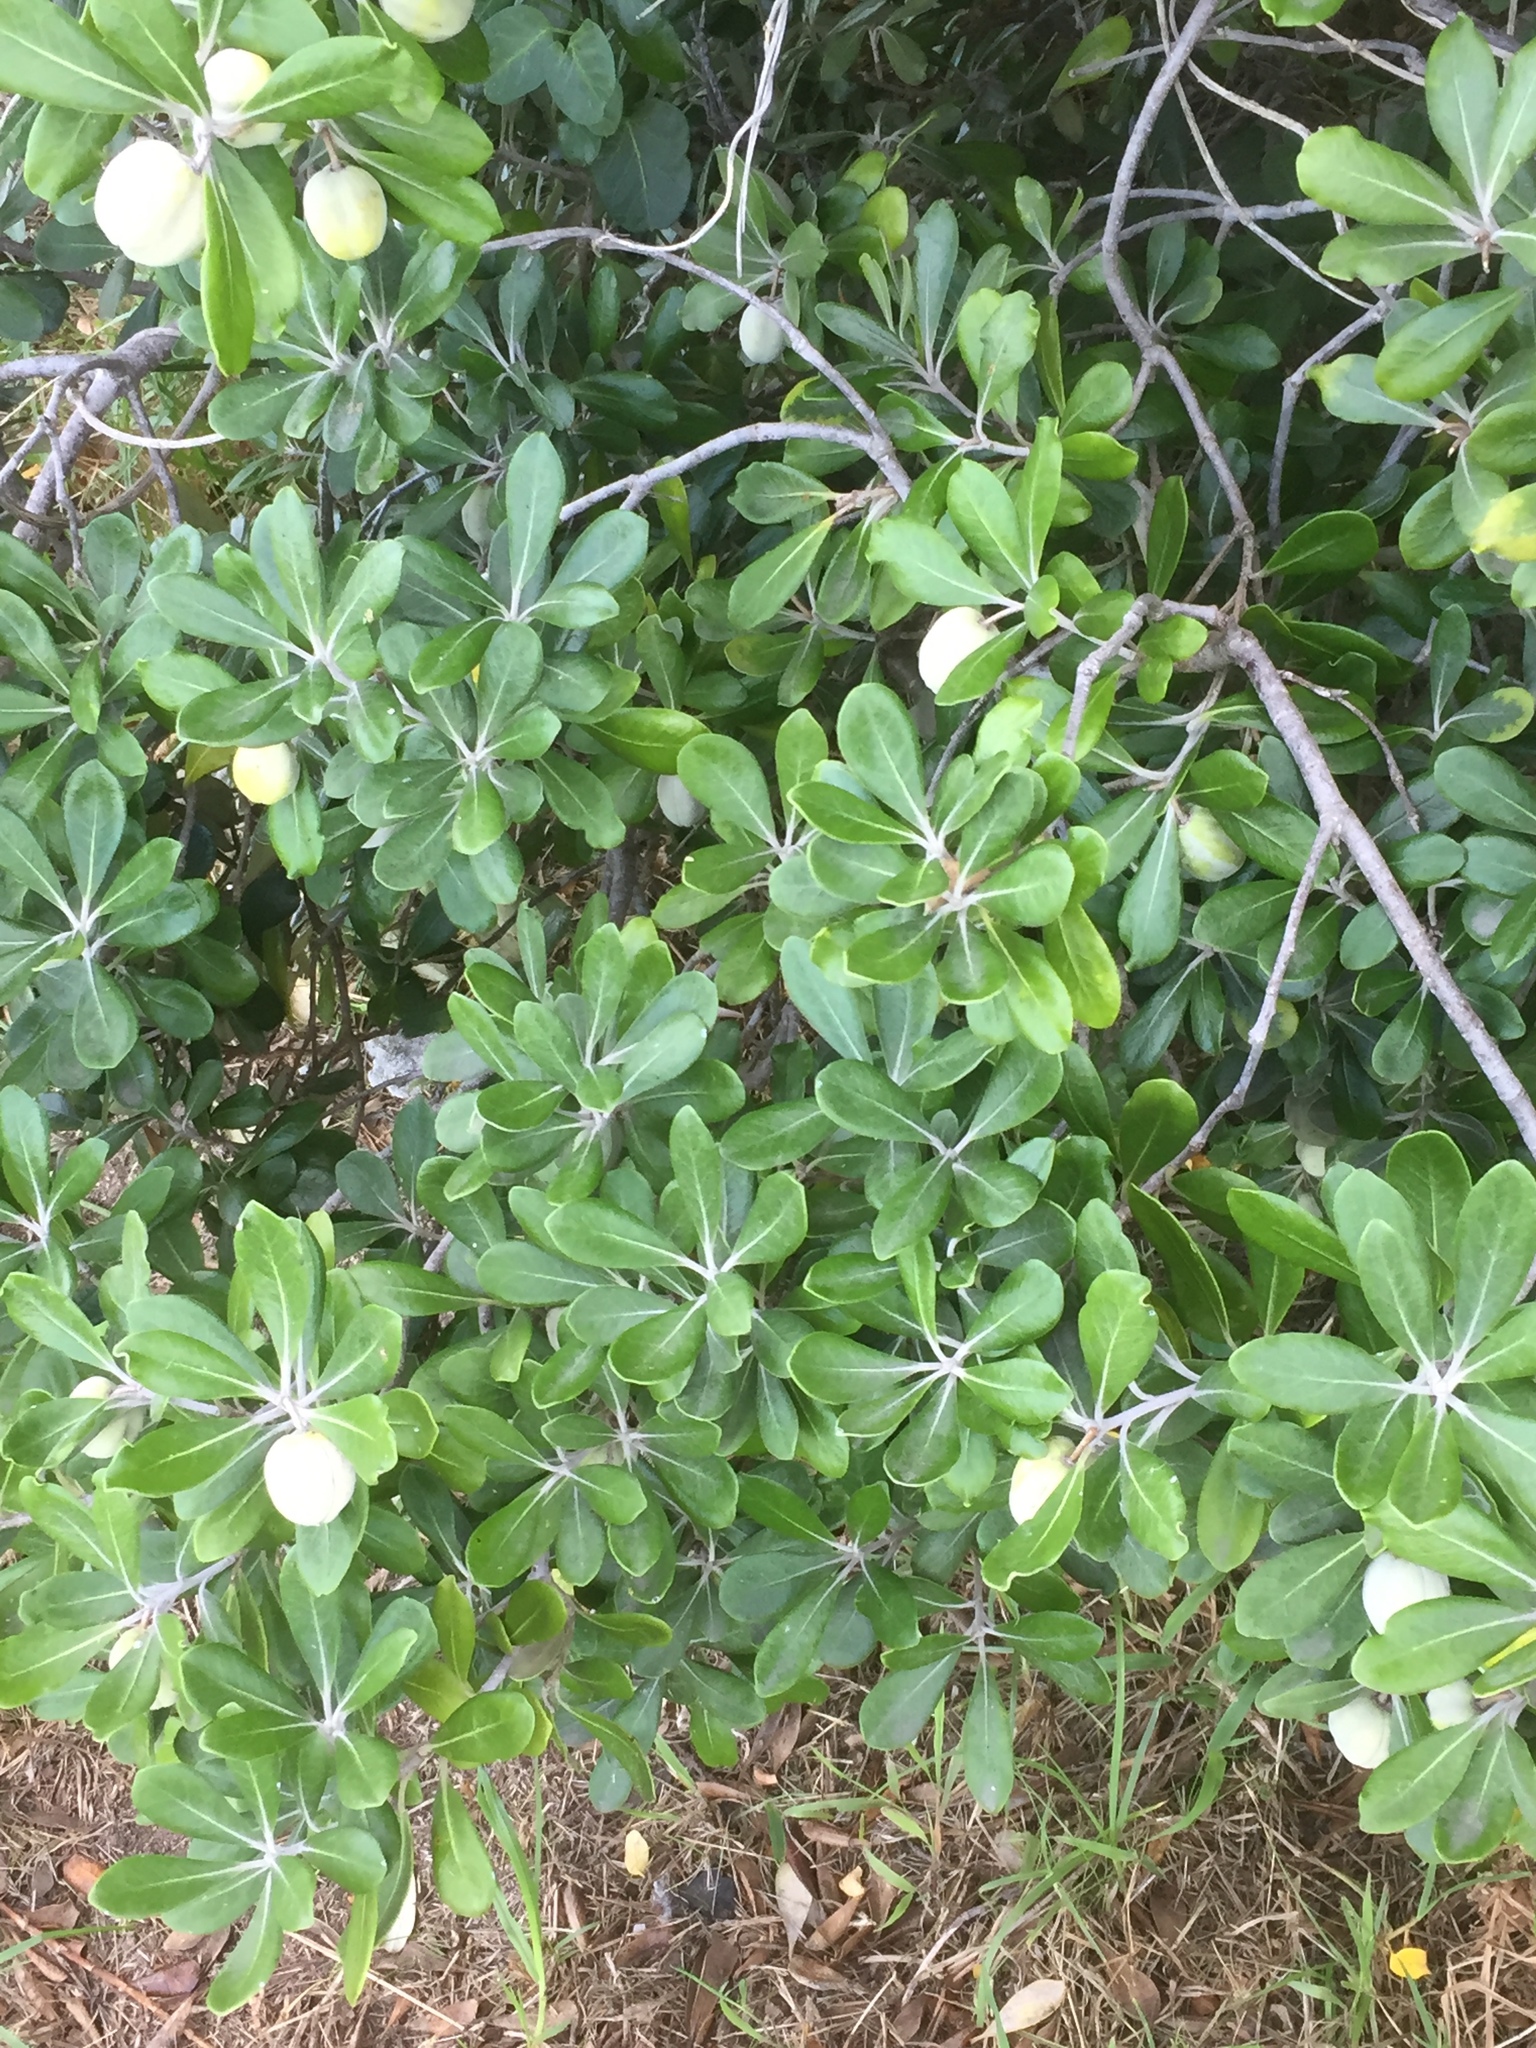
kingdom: Plantae
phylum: Tracheophyta
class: Magnoliopsida
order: Apiales
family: Pittosporaceae
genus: Pittosporum
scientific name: Pittosporum crassifolium
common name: Karo
